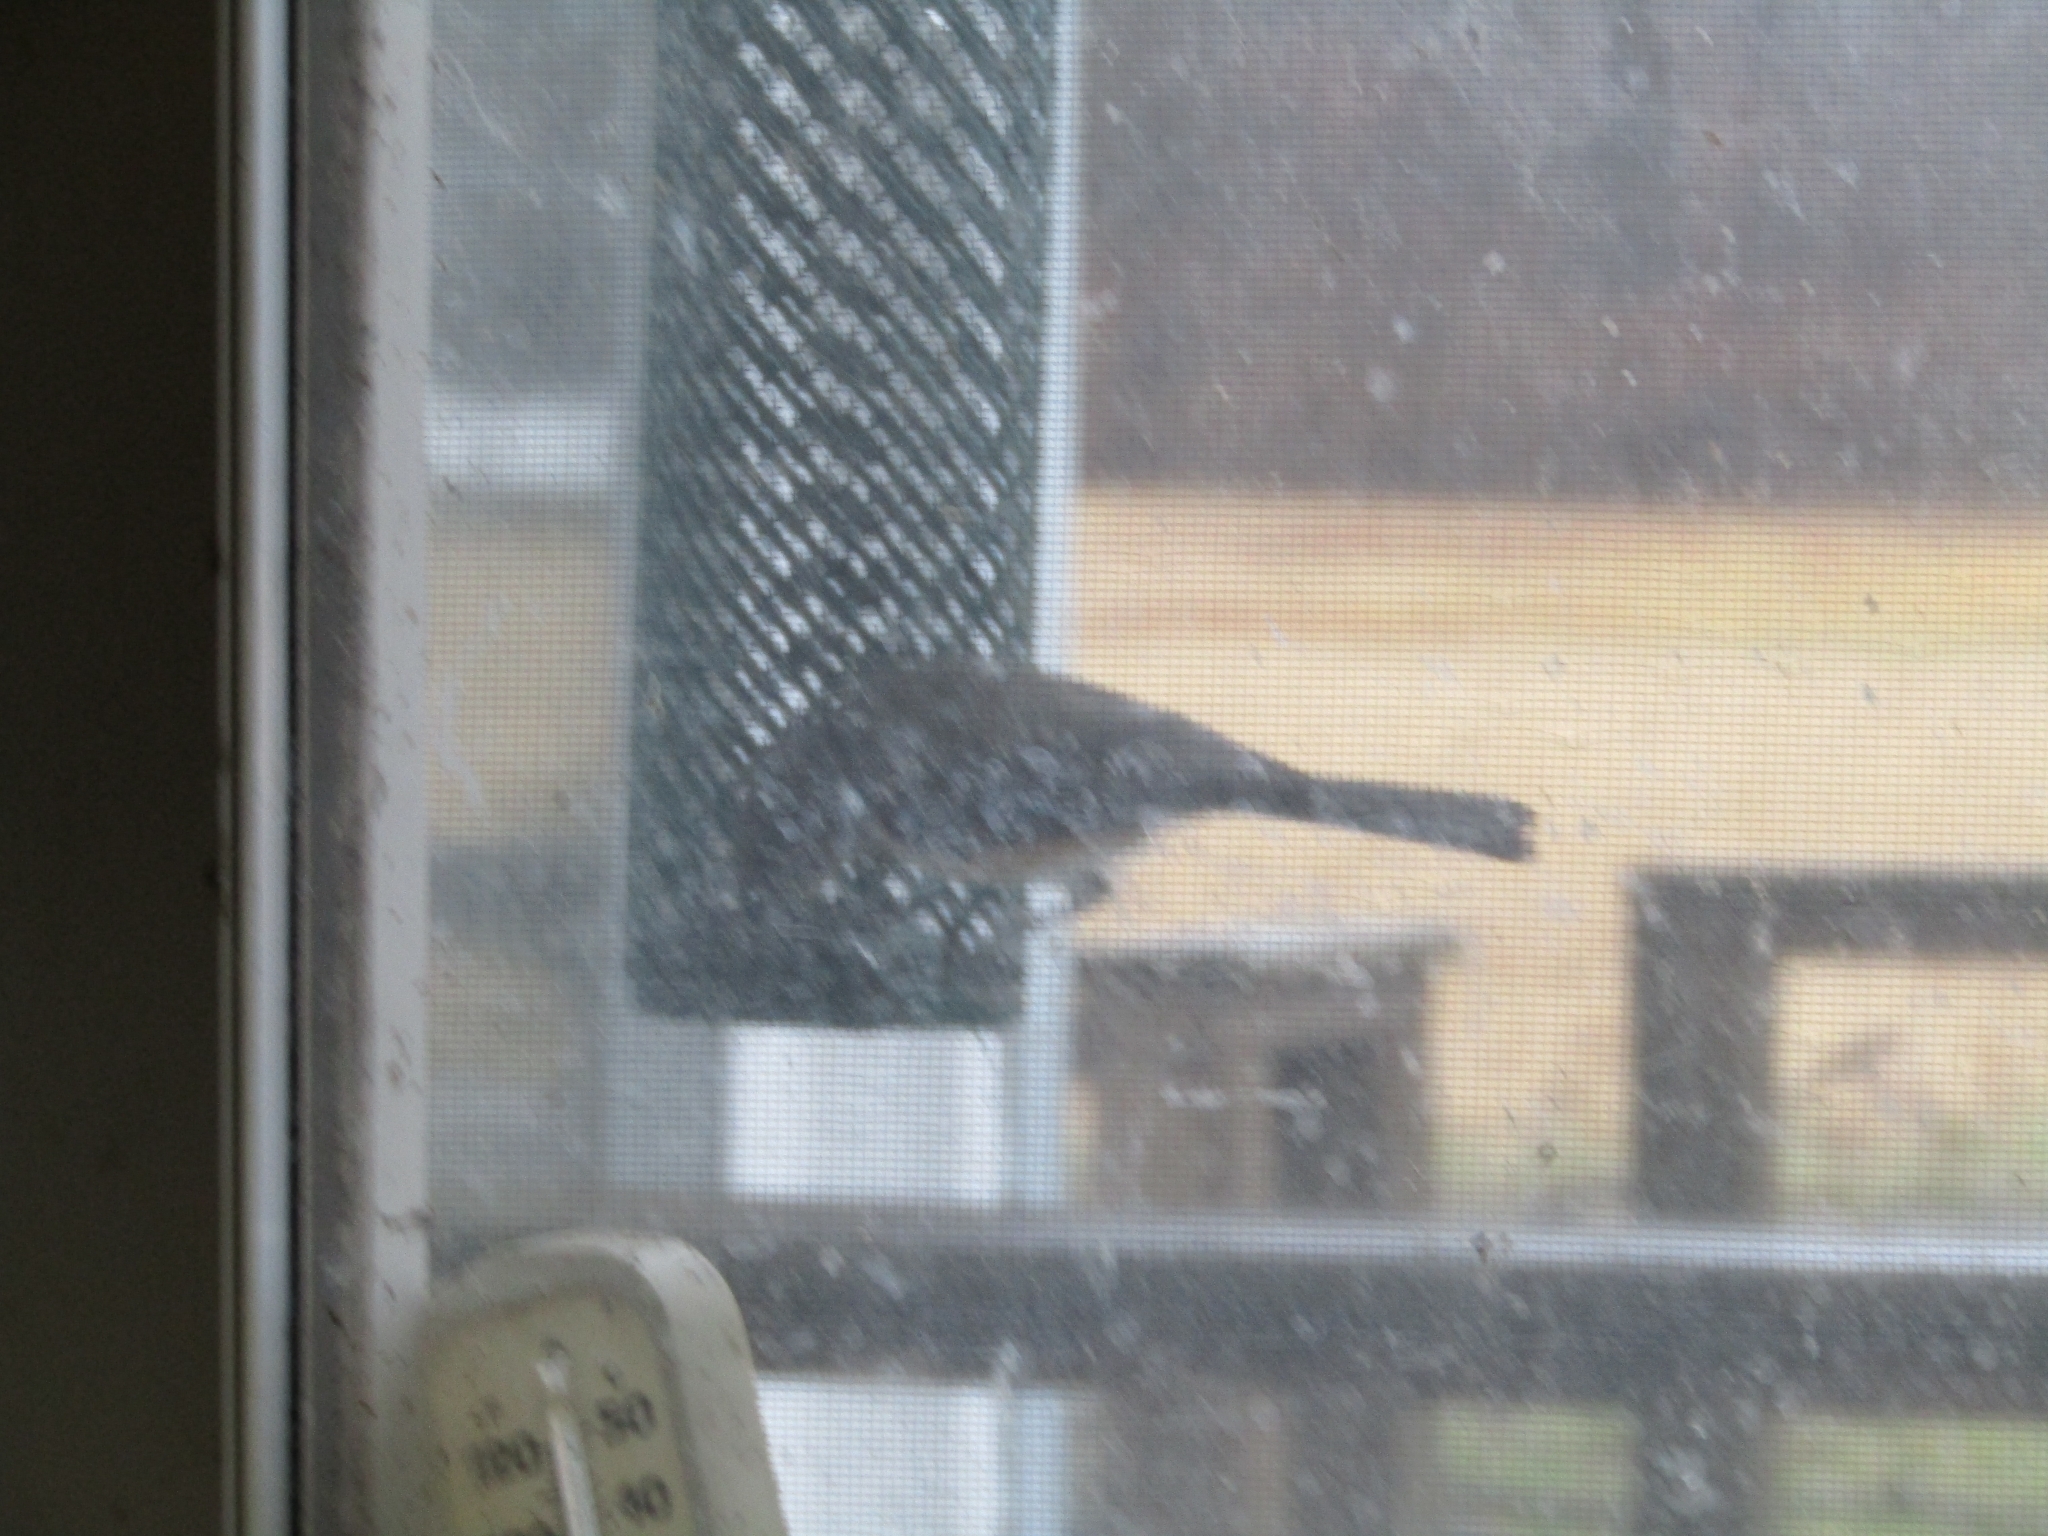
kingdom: Animalia
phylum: Chordata
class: Aves
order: Passeriformes
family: Paridae
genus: Baeolophus
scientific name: Baeolophus bicolor
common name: Tufted titmouse
